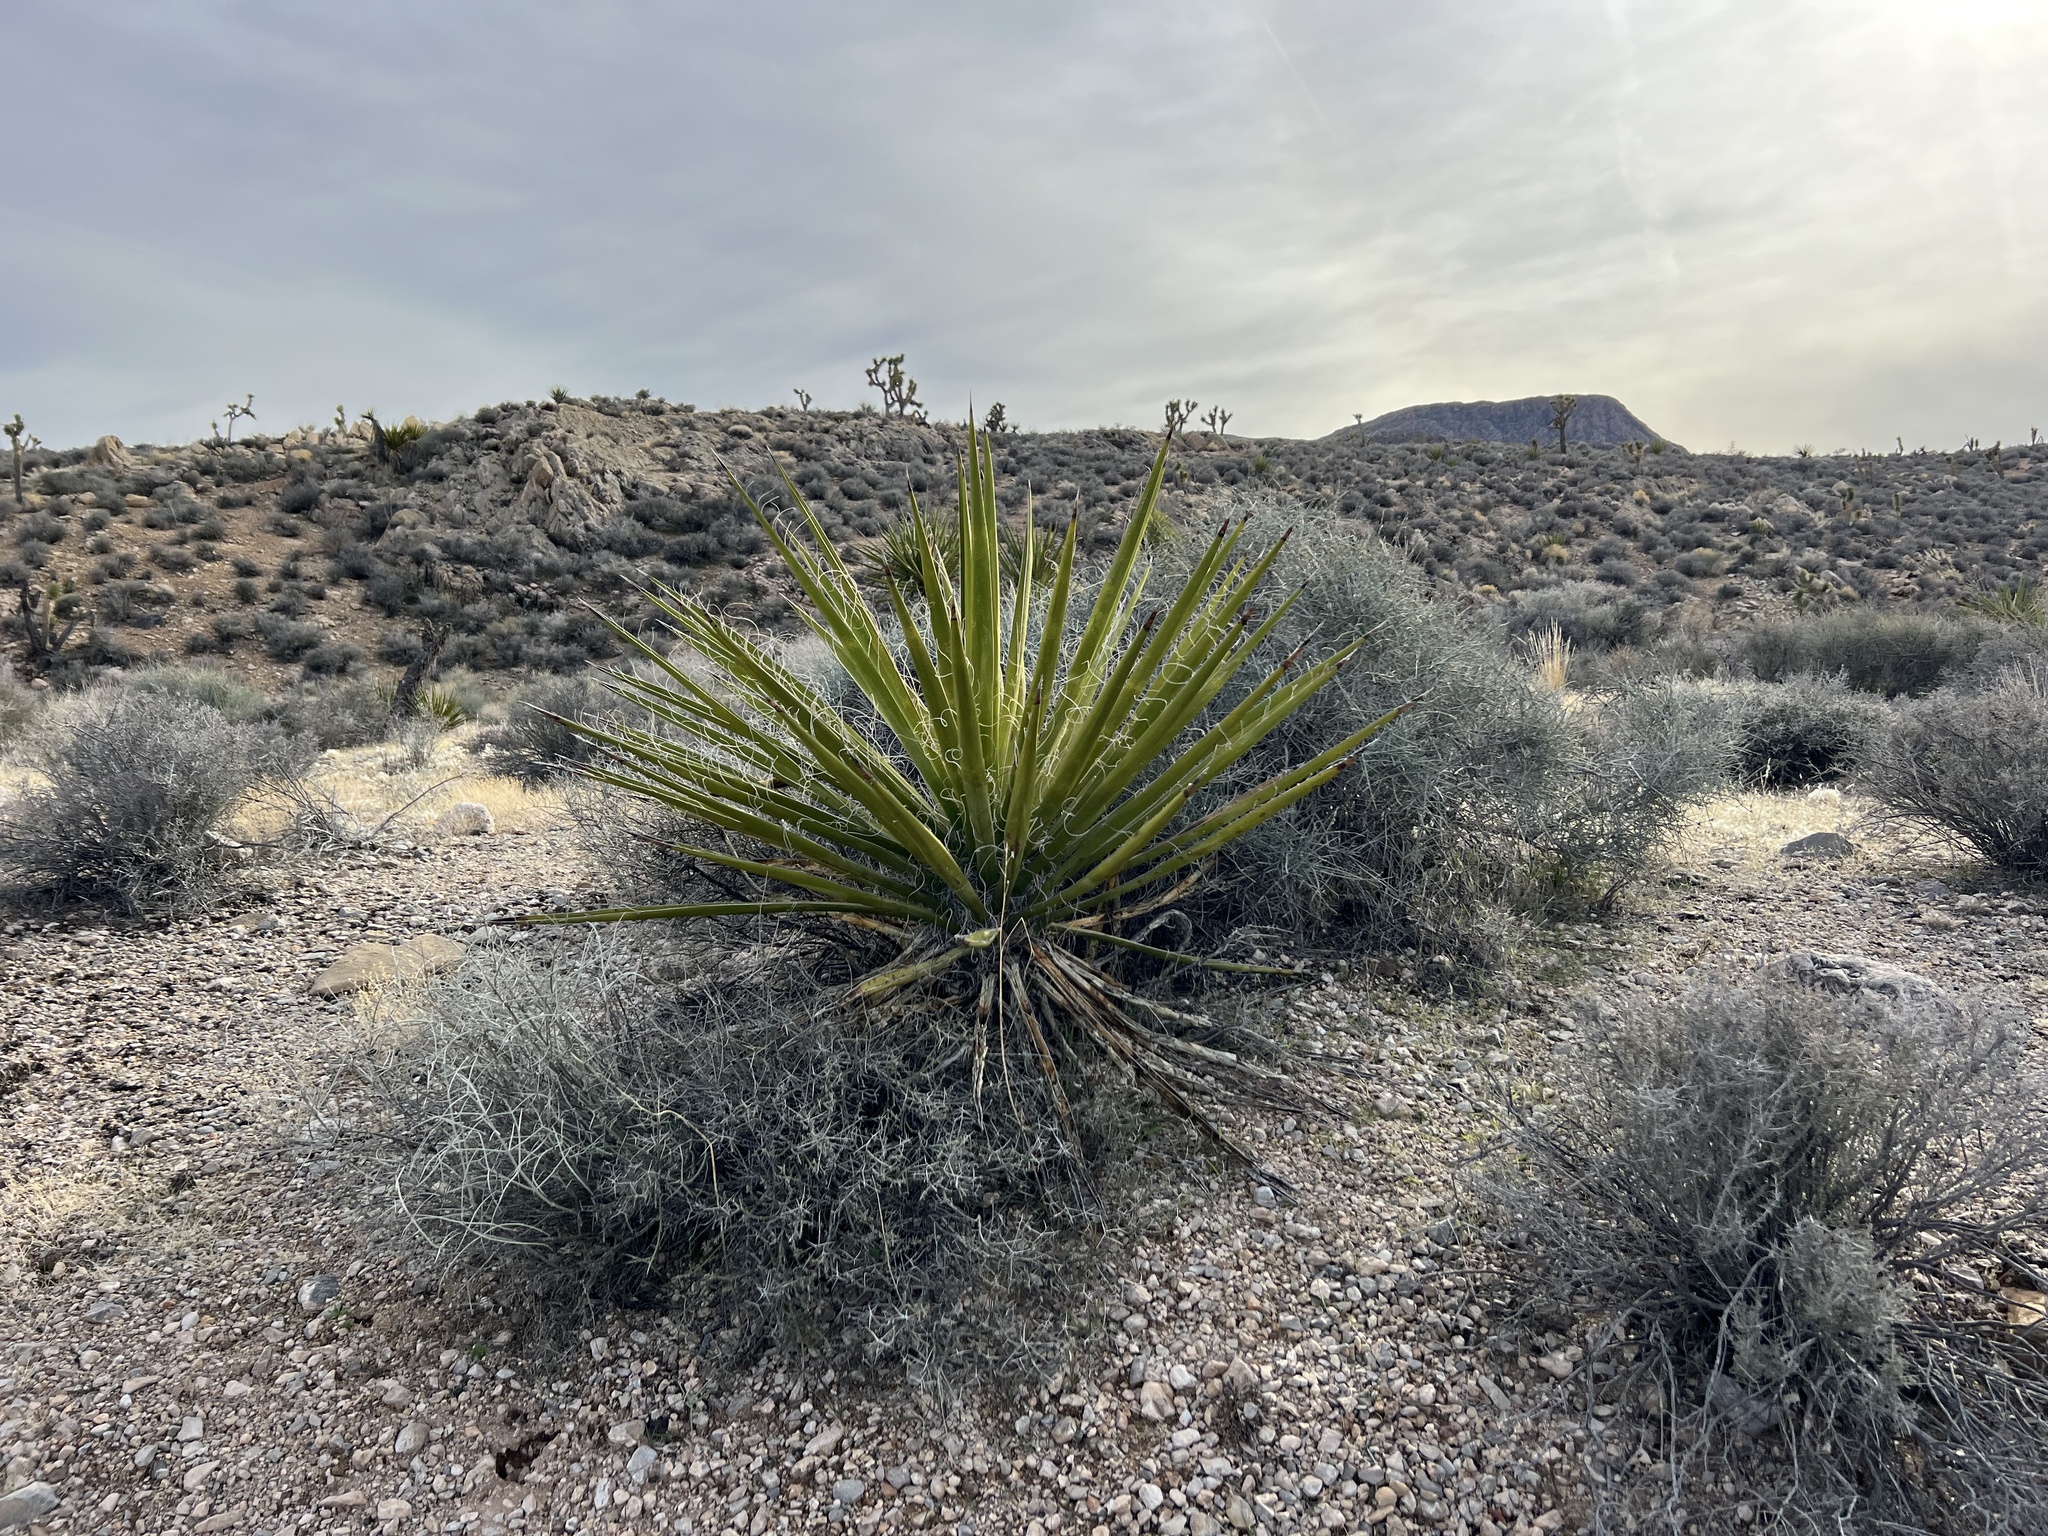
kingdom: Plantae
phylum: Tracheophyta
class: Liliopsida
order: Asparagales
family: Asparagaceae
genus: Yucca
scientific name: Yucca schidigera
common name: Mojave yucca
